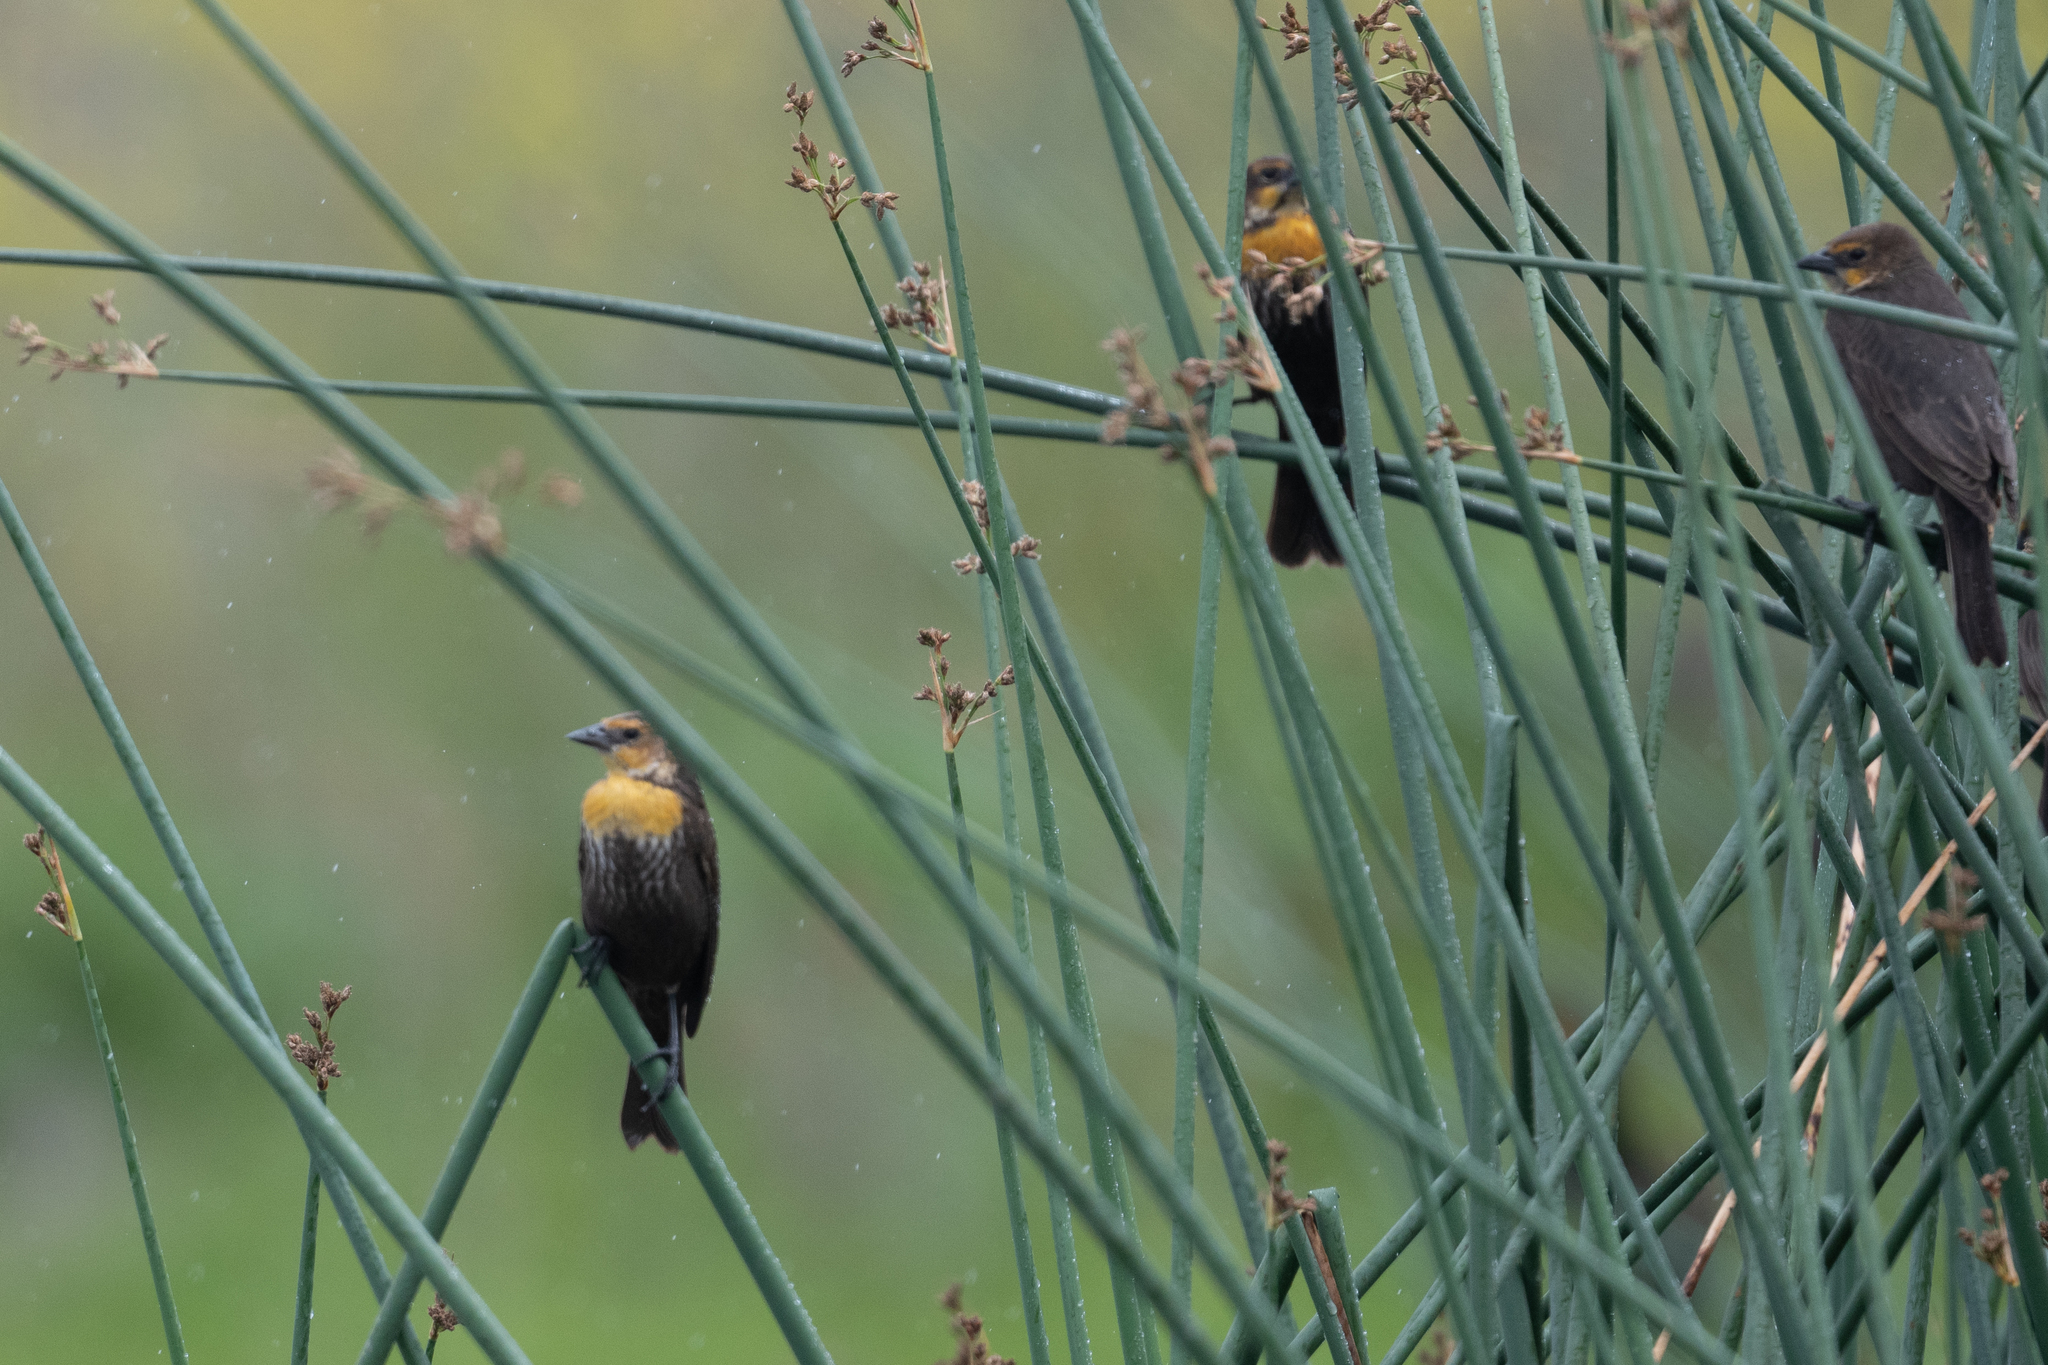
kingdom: Animalia
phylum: Chordata
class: Aves
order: Passeriformes
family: Icteridae
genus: Xanthocephalus
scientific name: Xanthocephalus xanthocephalus
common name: Yellow-headed blackbird
